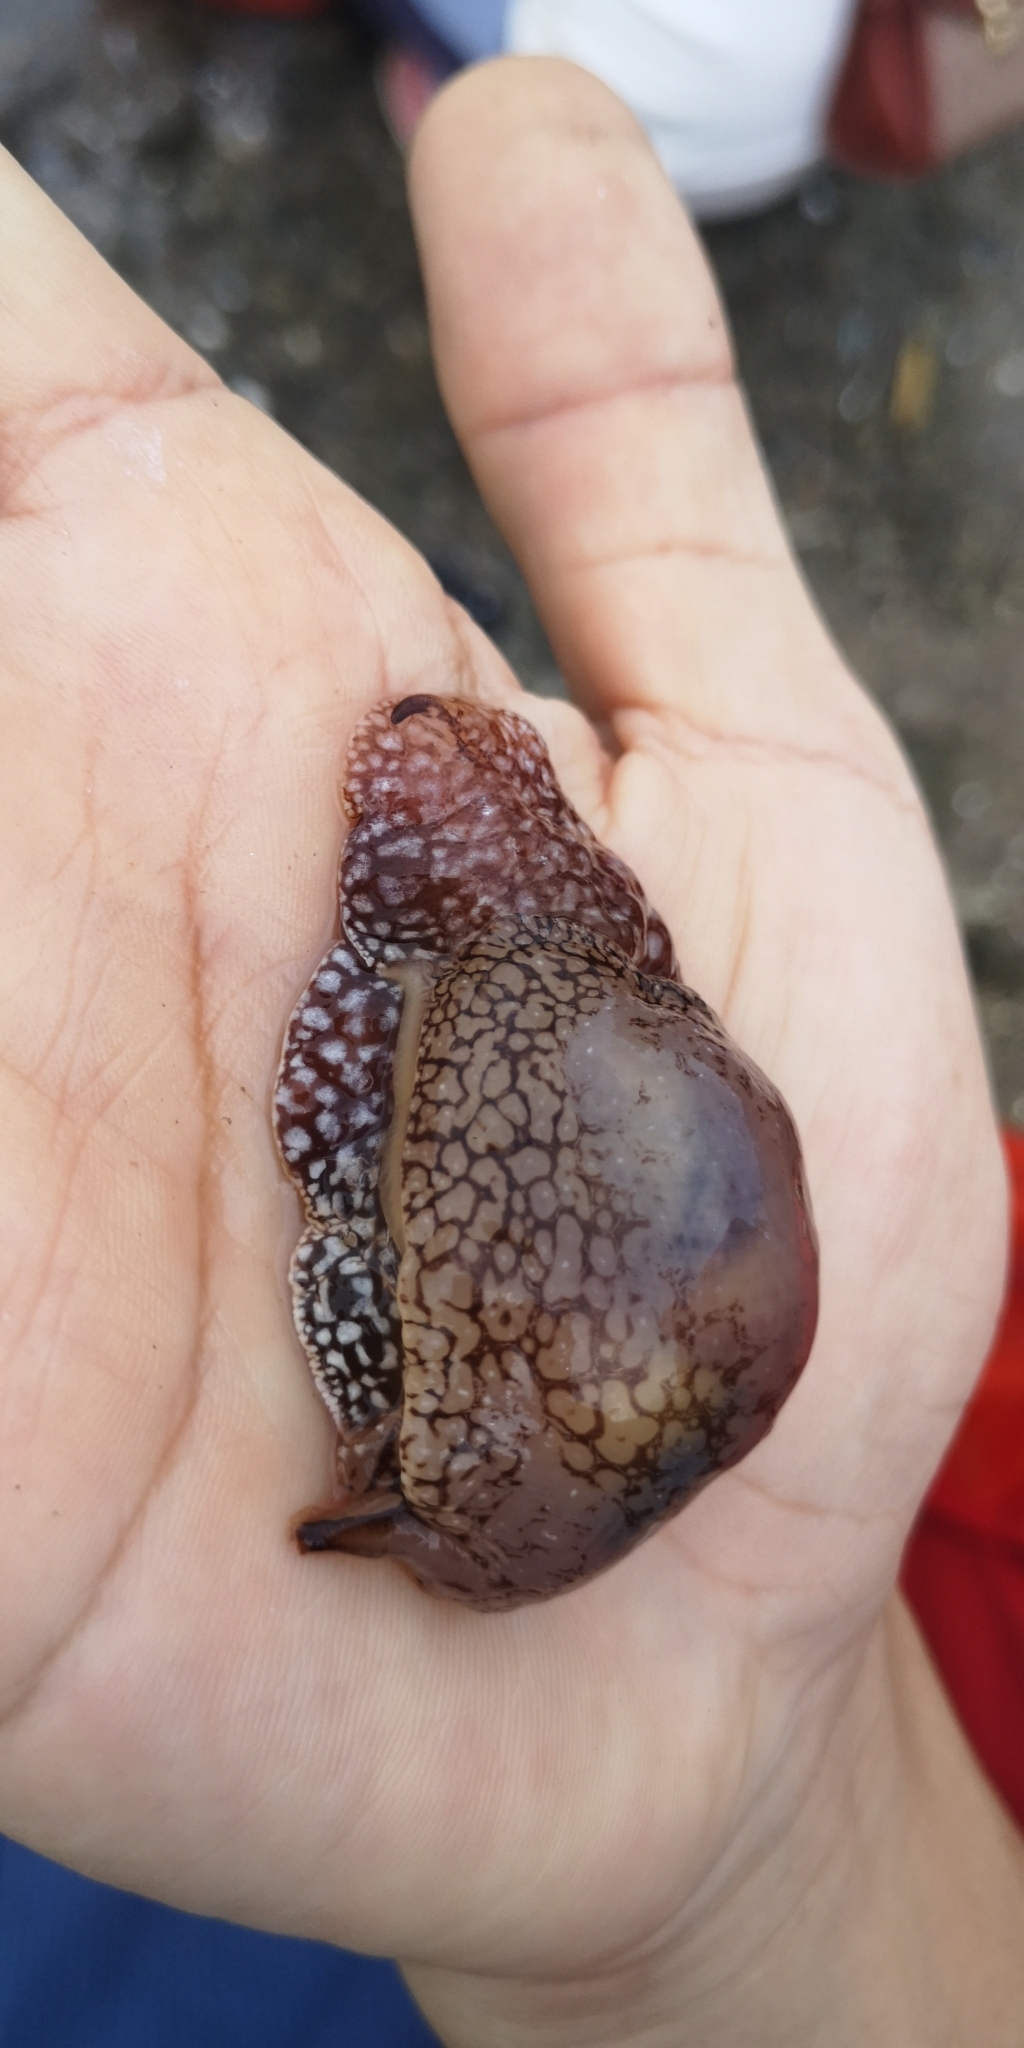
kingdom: Animalia
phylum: Mollusca
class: Gastropoda
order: Pleurobranchida
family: Pleurobranchaeidae
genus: Pleurobranchaea
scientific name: Pleurobranchaea brockii
